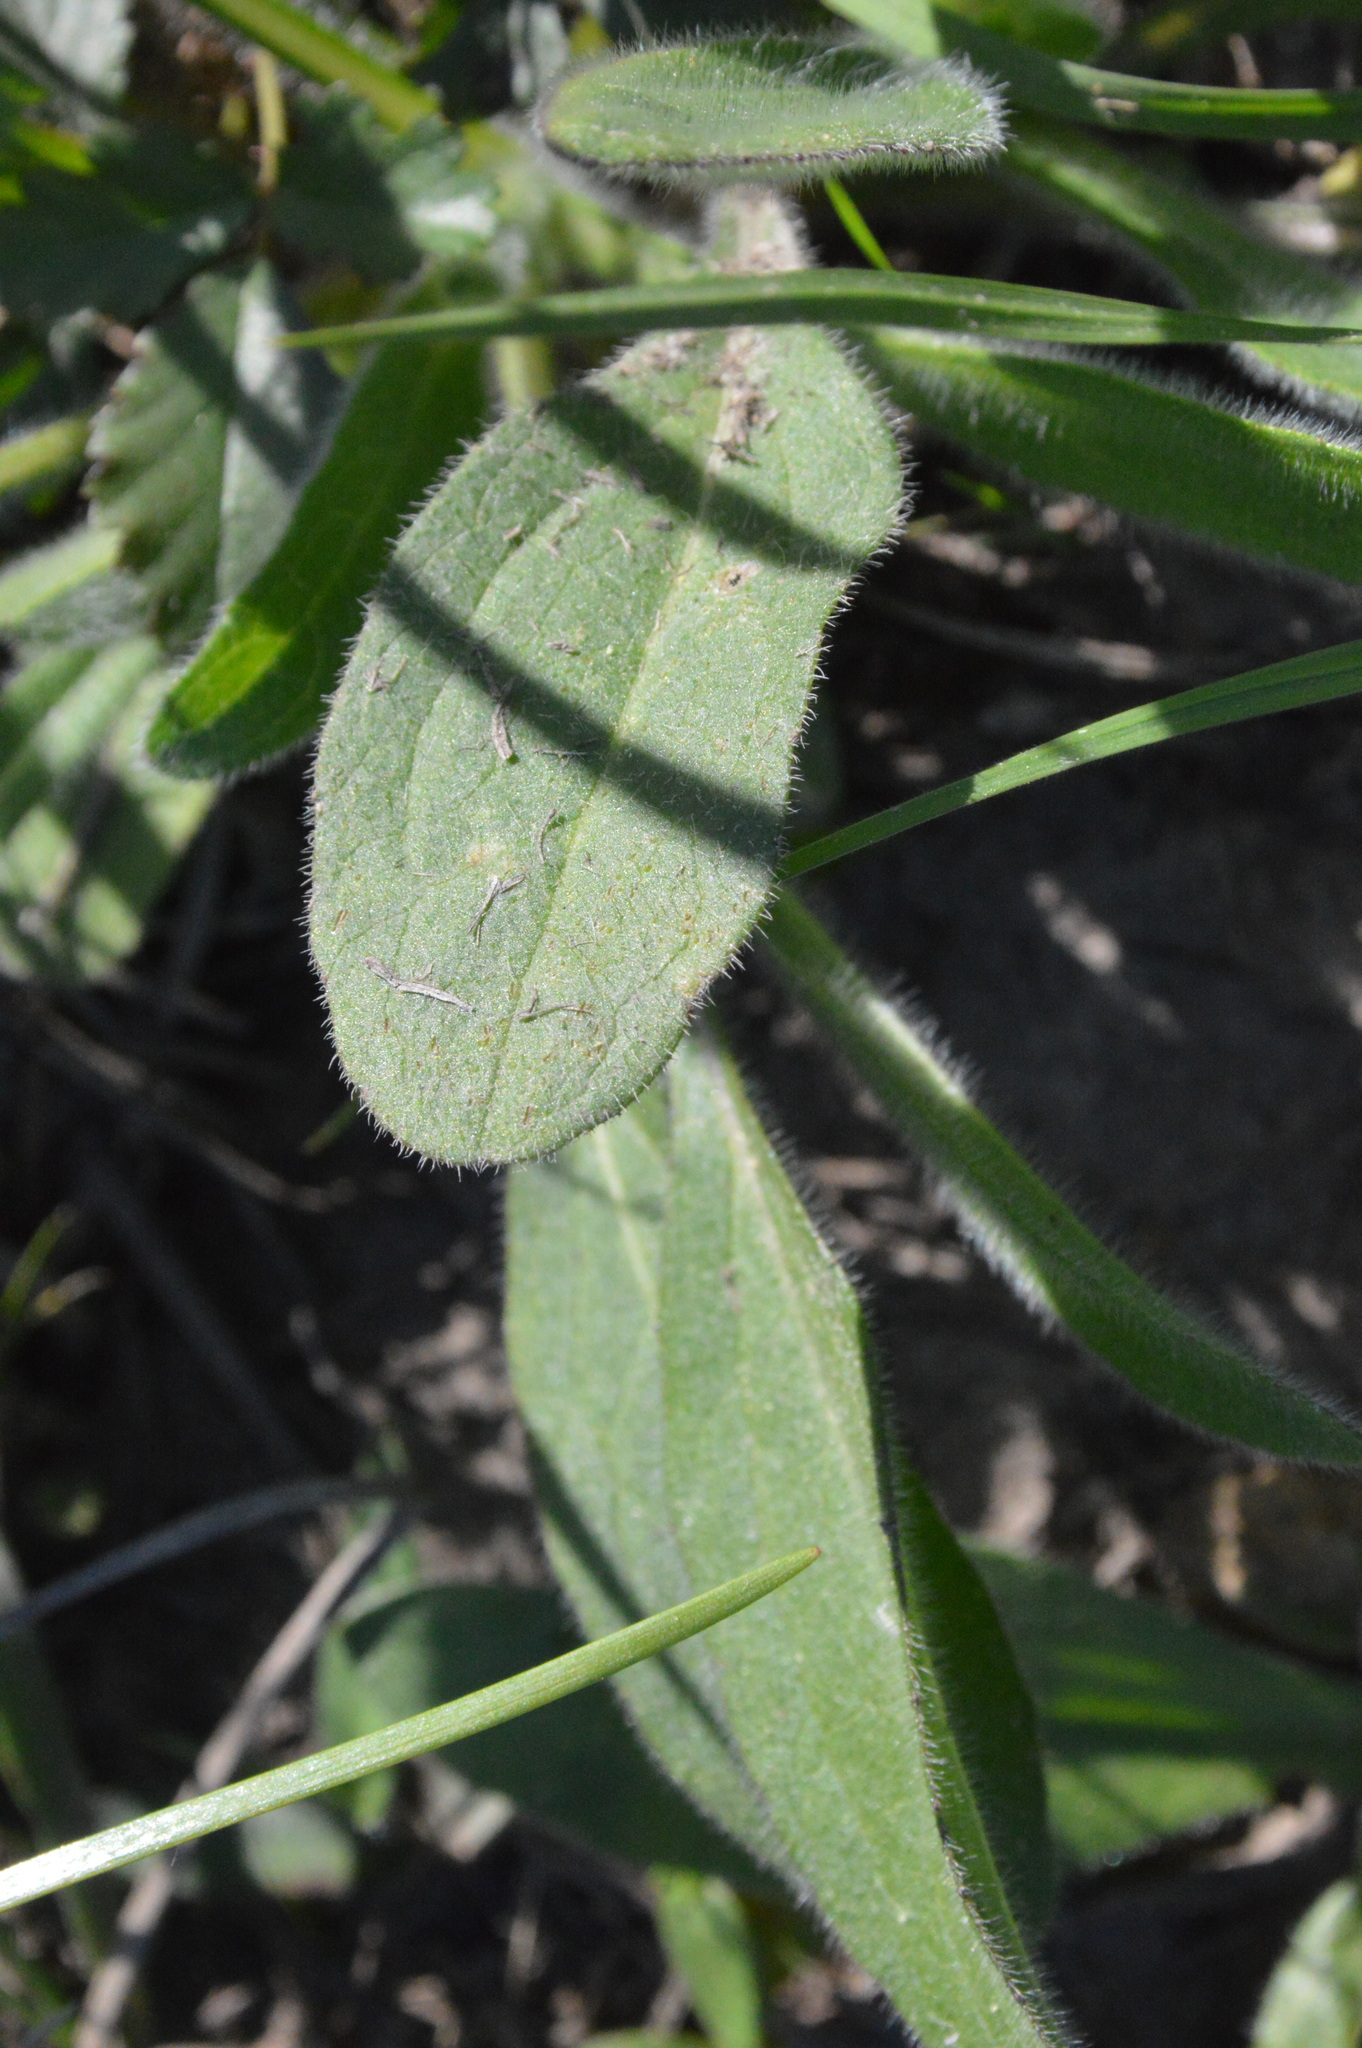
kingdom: Plantae
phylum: Tracheophyta
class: Magnoliopsida
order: Asterales
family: Asteraceae
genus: Rudbeckia
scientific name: Rudbeckia hirta
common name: Black-eyed-susan
